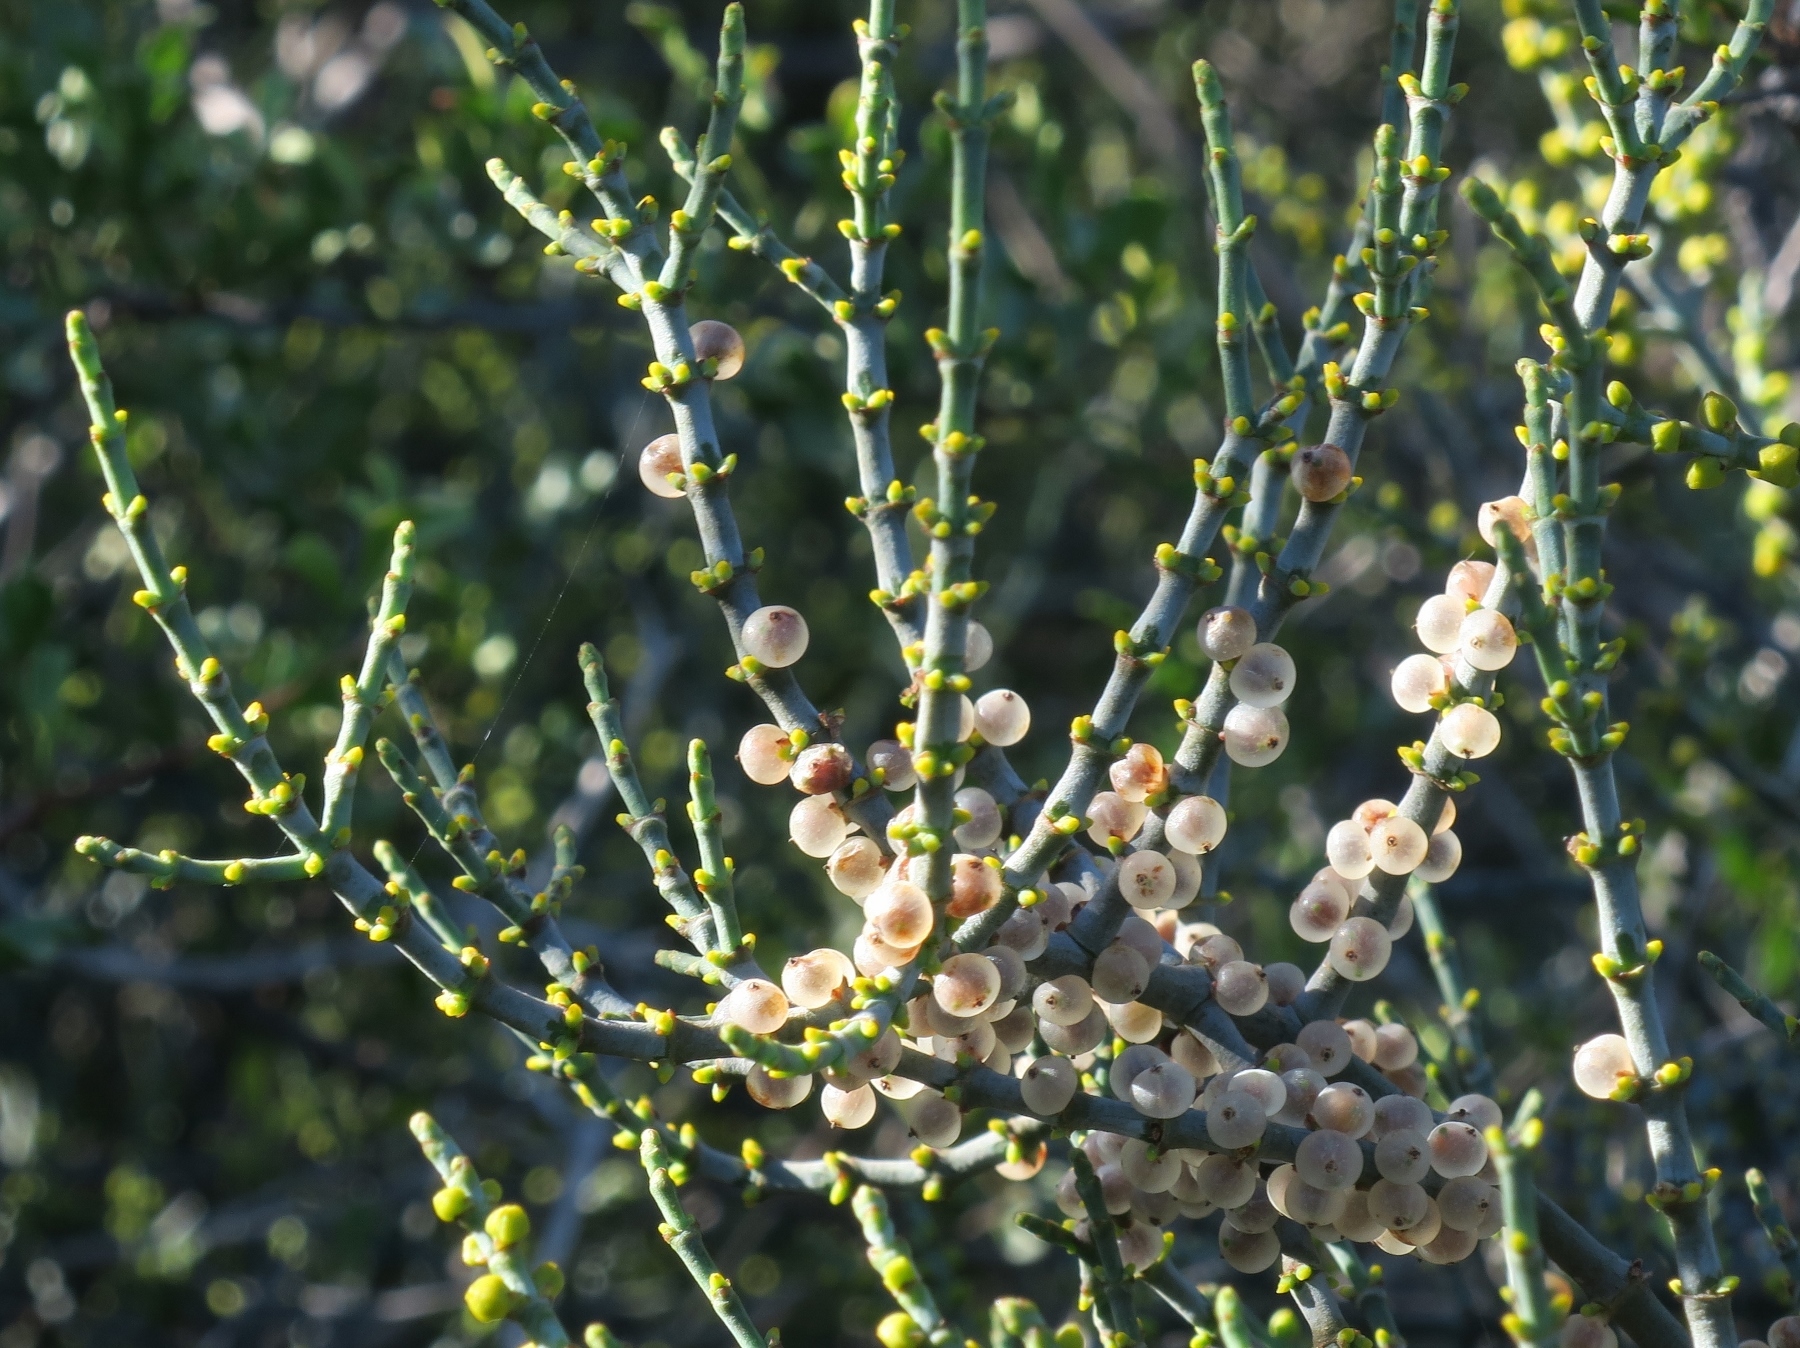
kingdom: Plantae
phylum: Tracheophyta
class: Magnoliopsida
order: Santalales
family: Viscaceae
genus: Viscum
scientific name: Viscum capense
